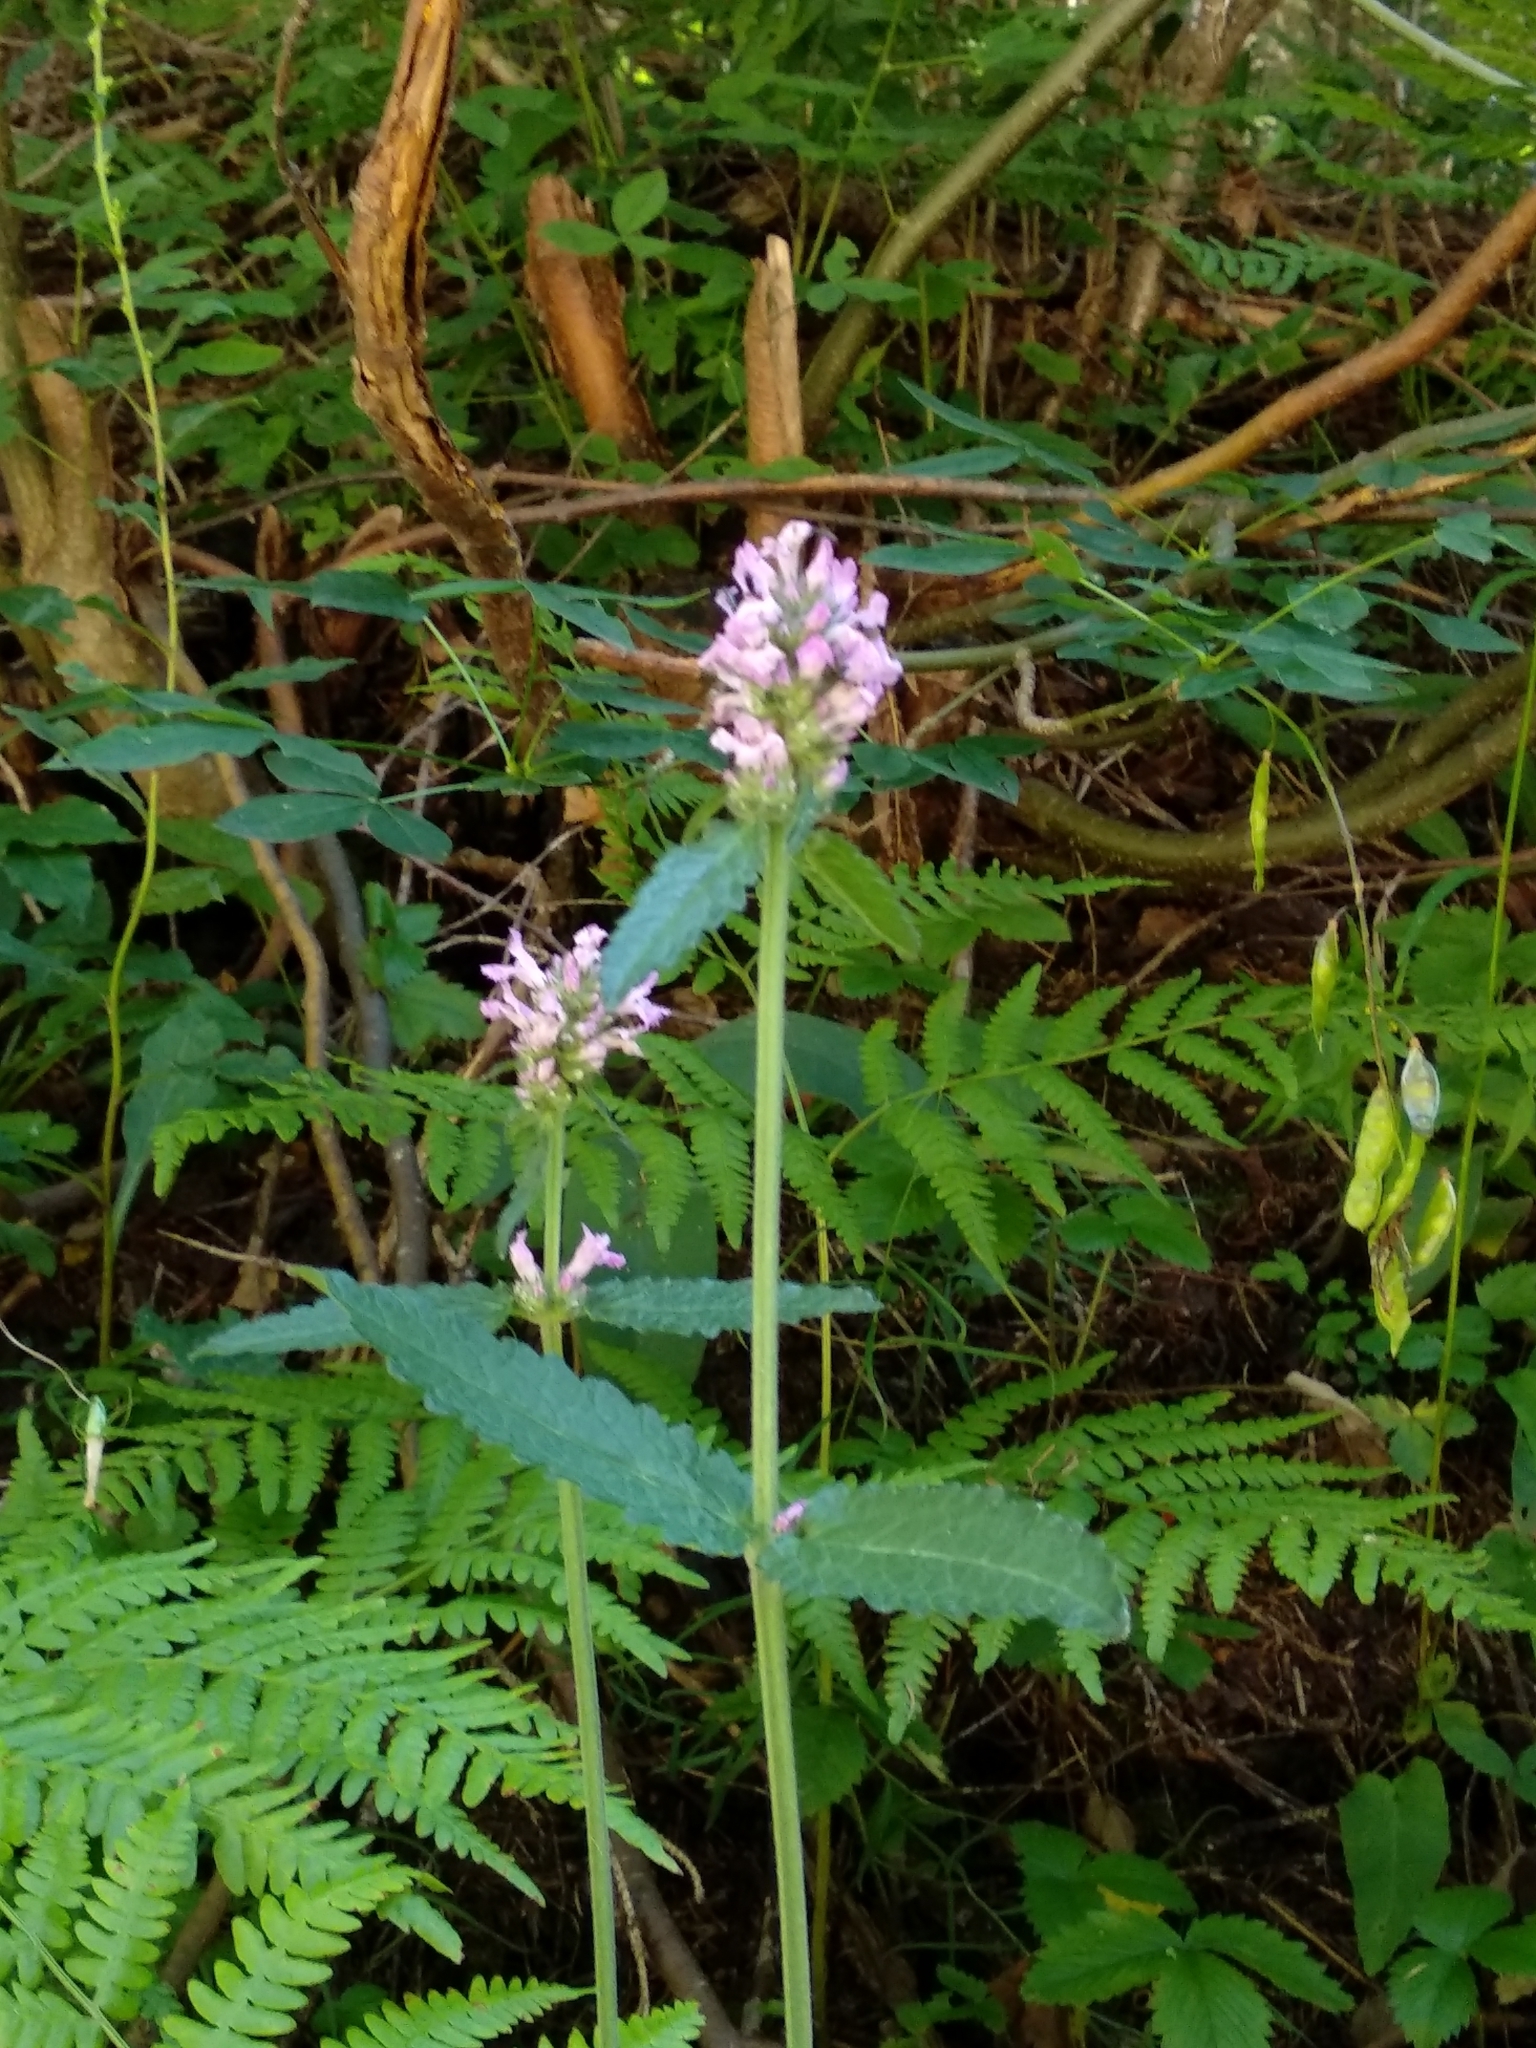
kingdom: Plantae
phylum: Tracheophyta
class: Magnoliopsida
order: Lamiales
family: Lamiaceae
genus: Betonica
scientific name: Betonica officinalis
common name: Bishop's-wort
